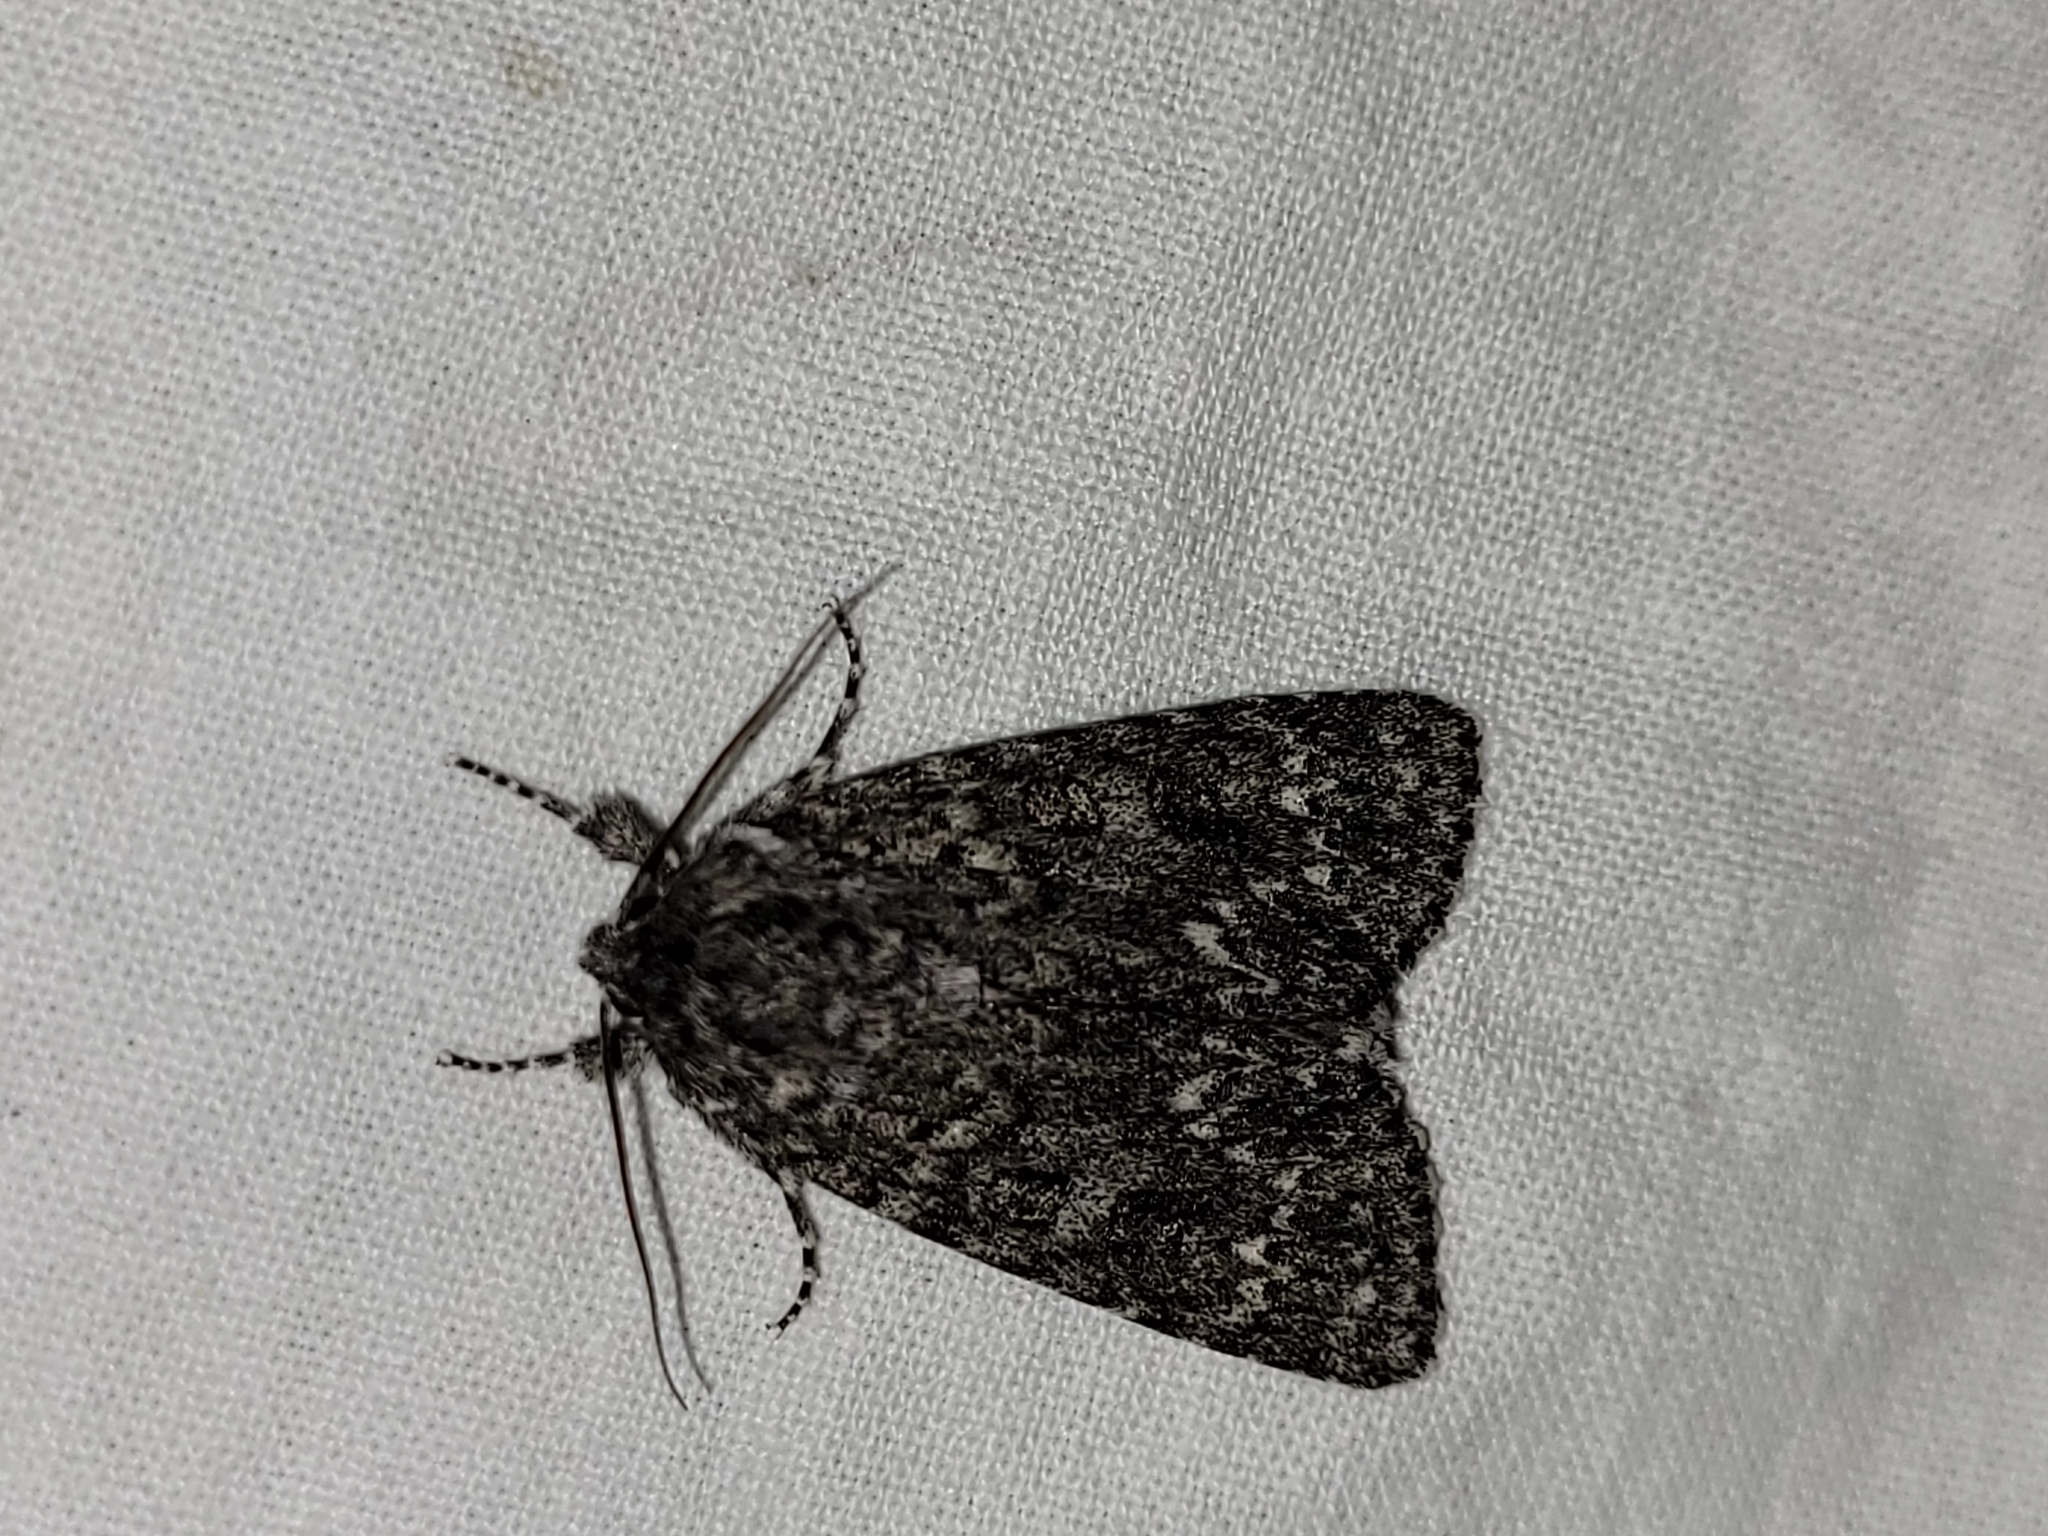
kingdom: Animalia
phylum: Arthropoda
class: Insecta
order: Lepidoptera
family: Noctuidae
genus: Acronicta
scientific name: Acronicta impressa
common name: Impressed dagger
